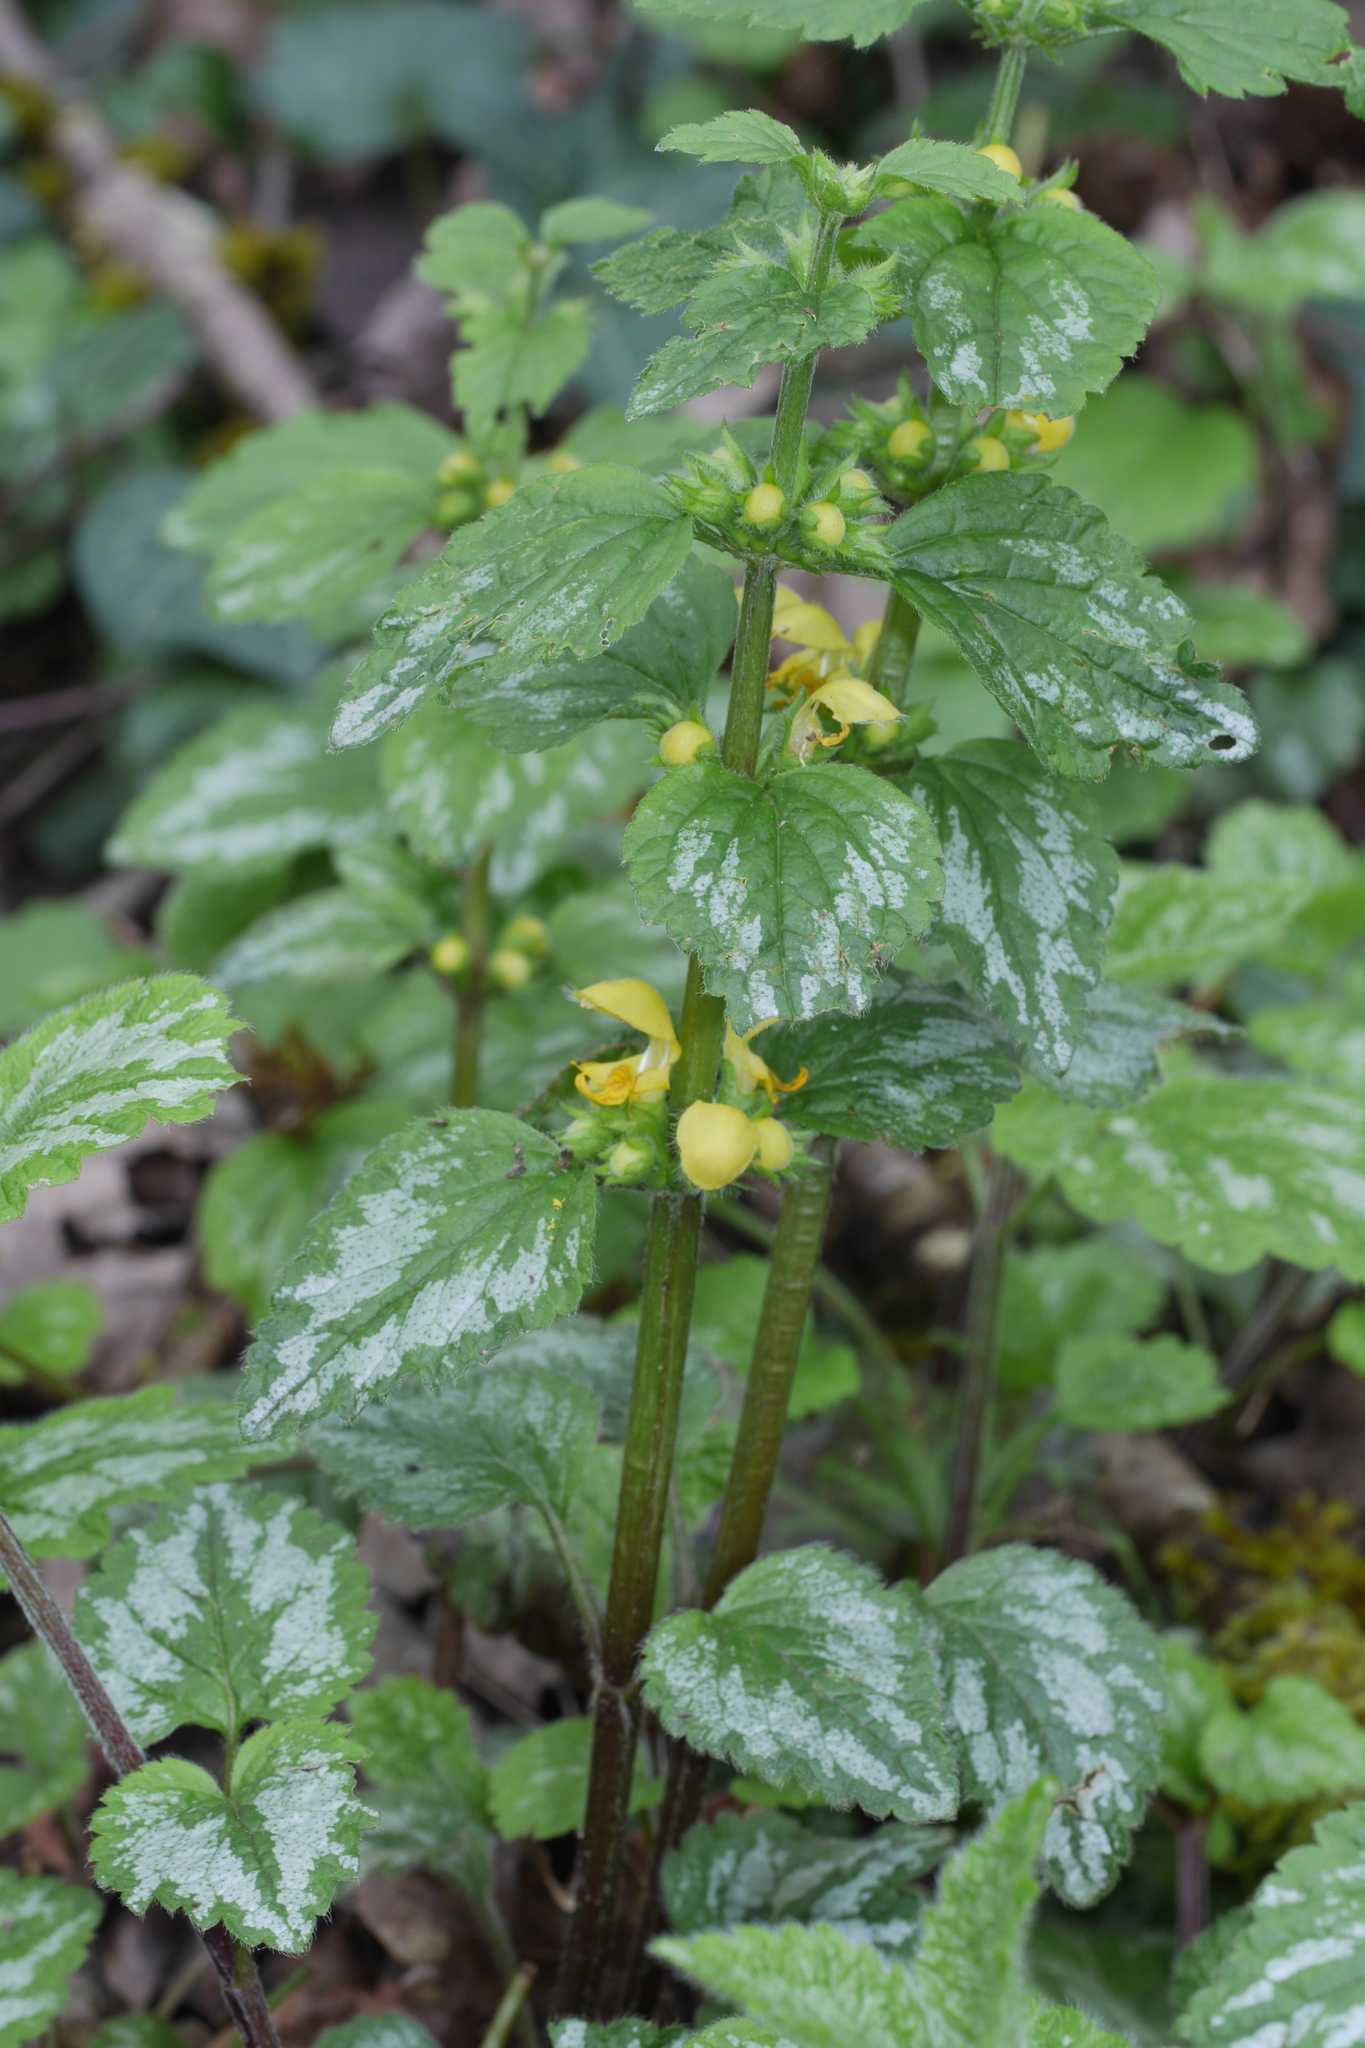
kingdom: Plantae
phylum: Tracheophyta
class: Magnoliopsida
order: Lamiales
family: Lamiaceae
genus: Lamium
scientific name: Lamium galeobdolon
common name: Yellow archangel
